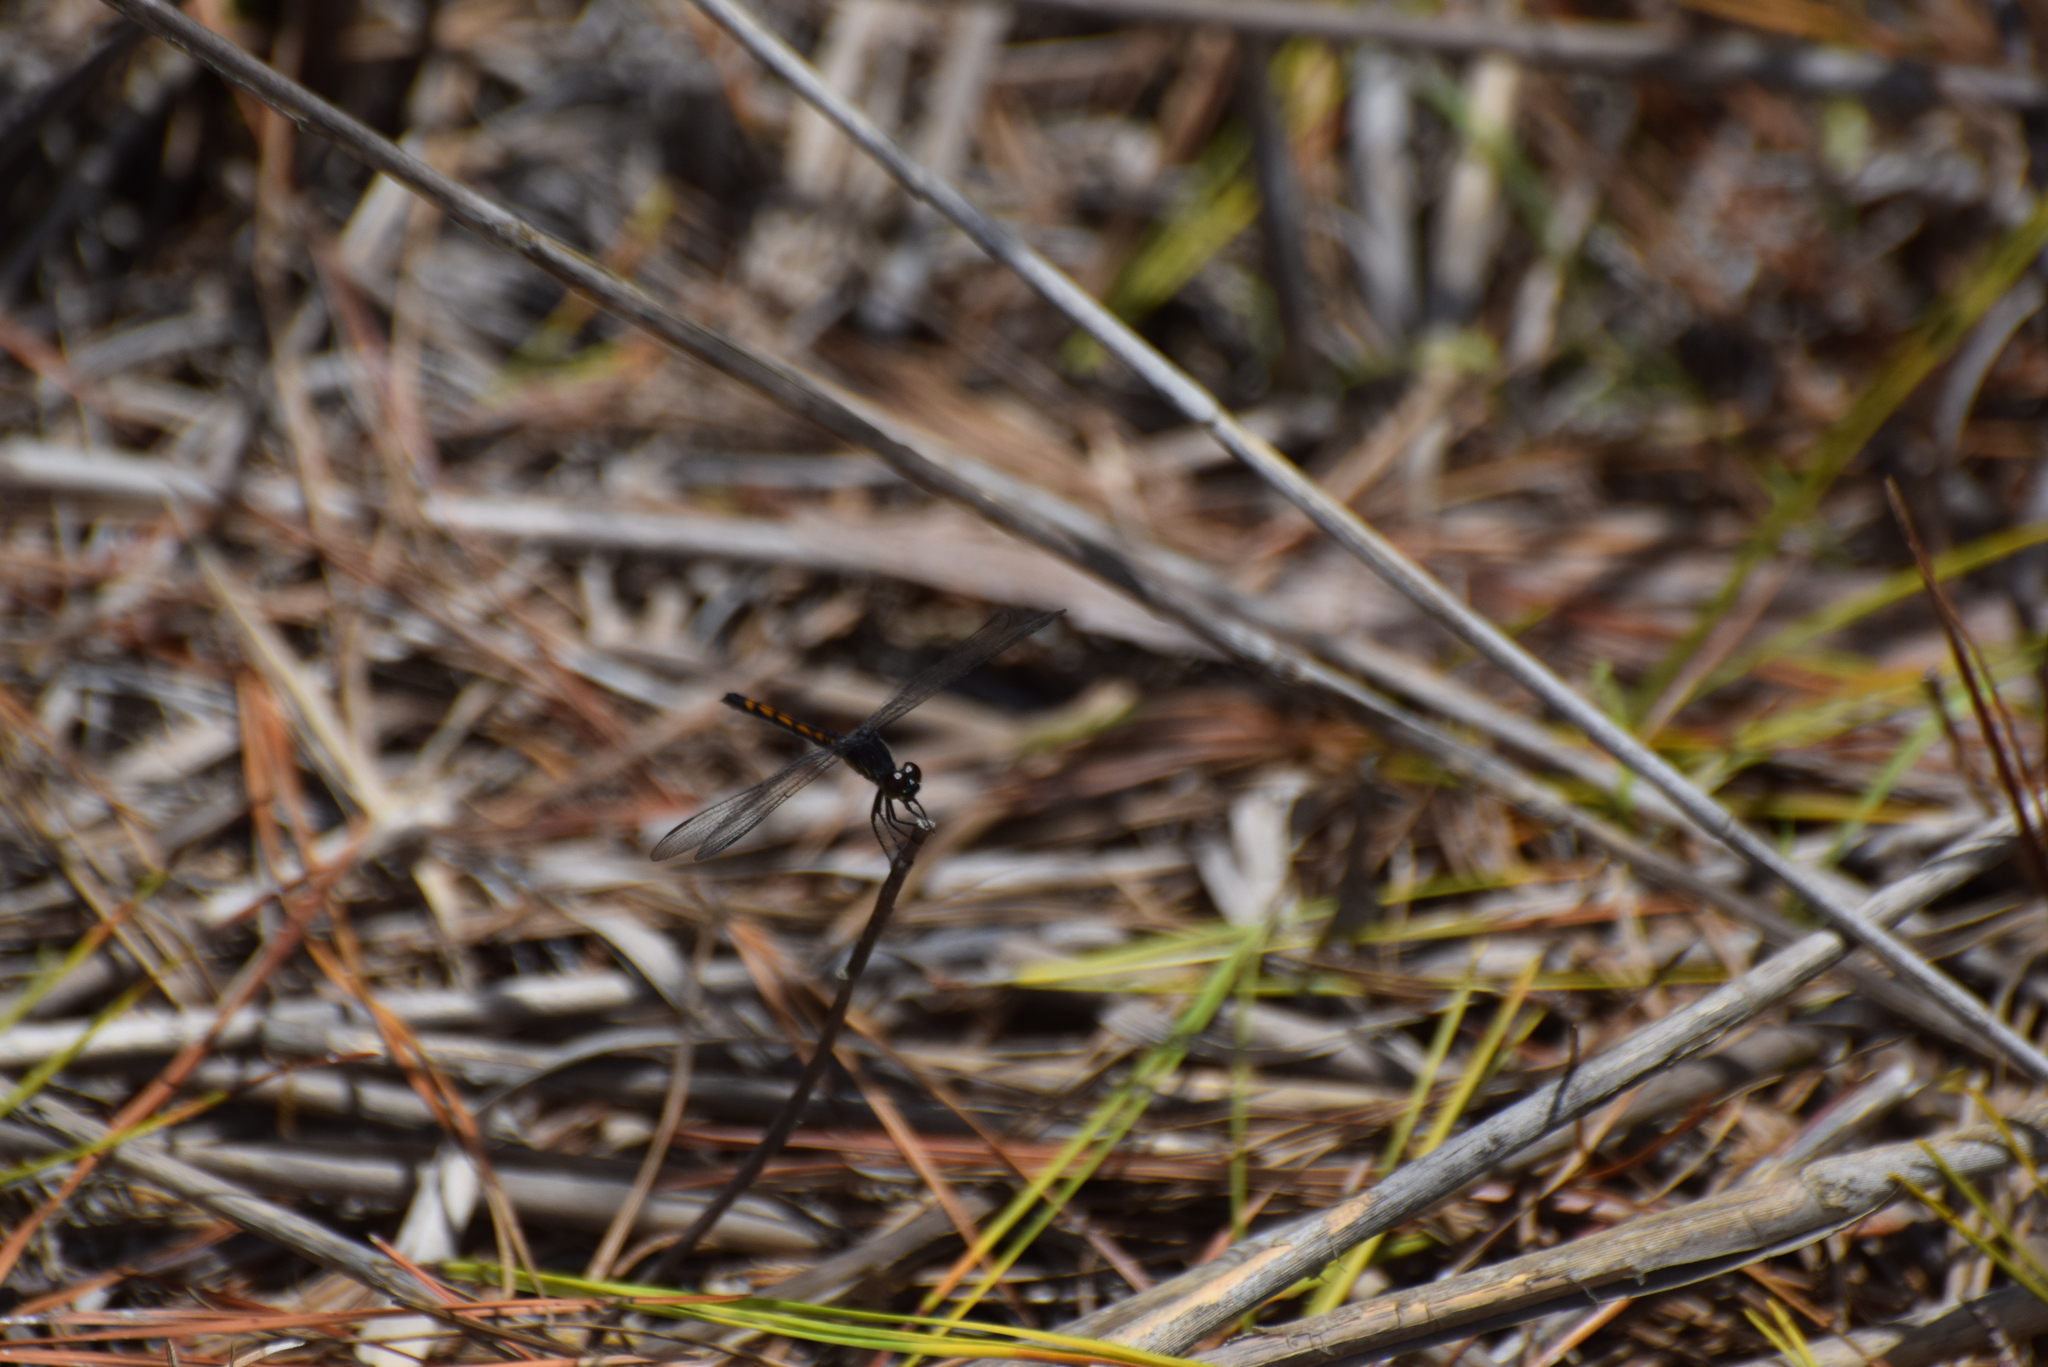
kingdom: Animalia
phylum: Arthropoda
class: Insecta
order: Odonata
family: Libellulidae
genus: Erythrodiplax
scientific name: Erythrodiplax berenice
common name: Seaside dragonlet
